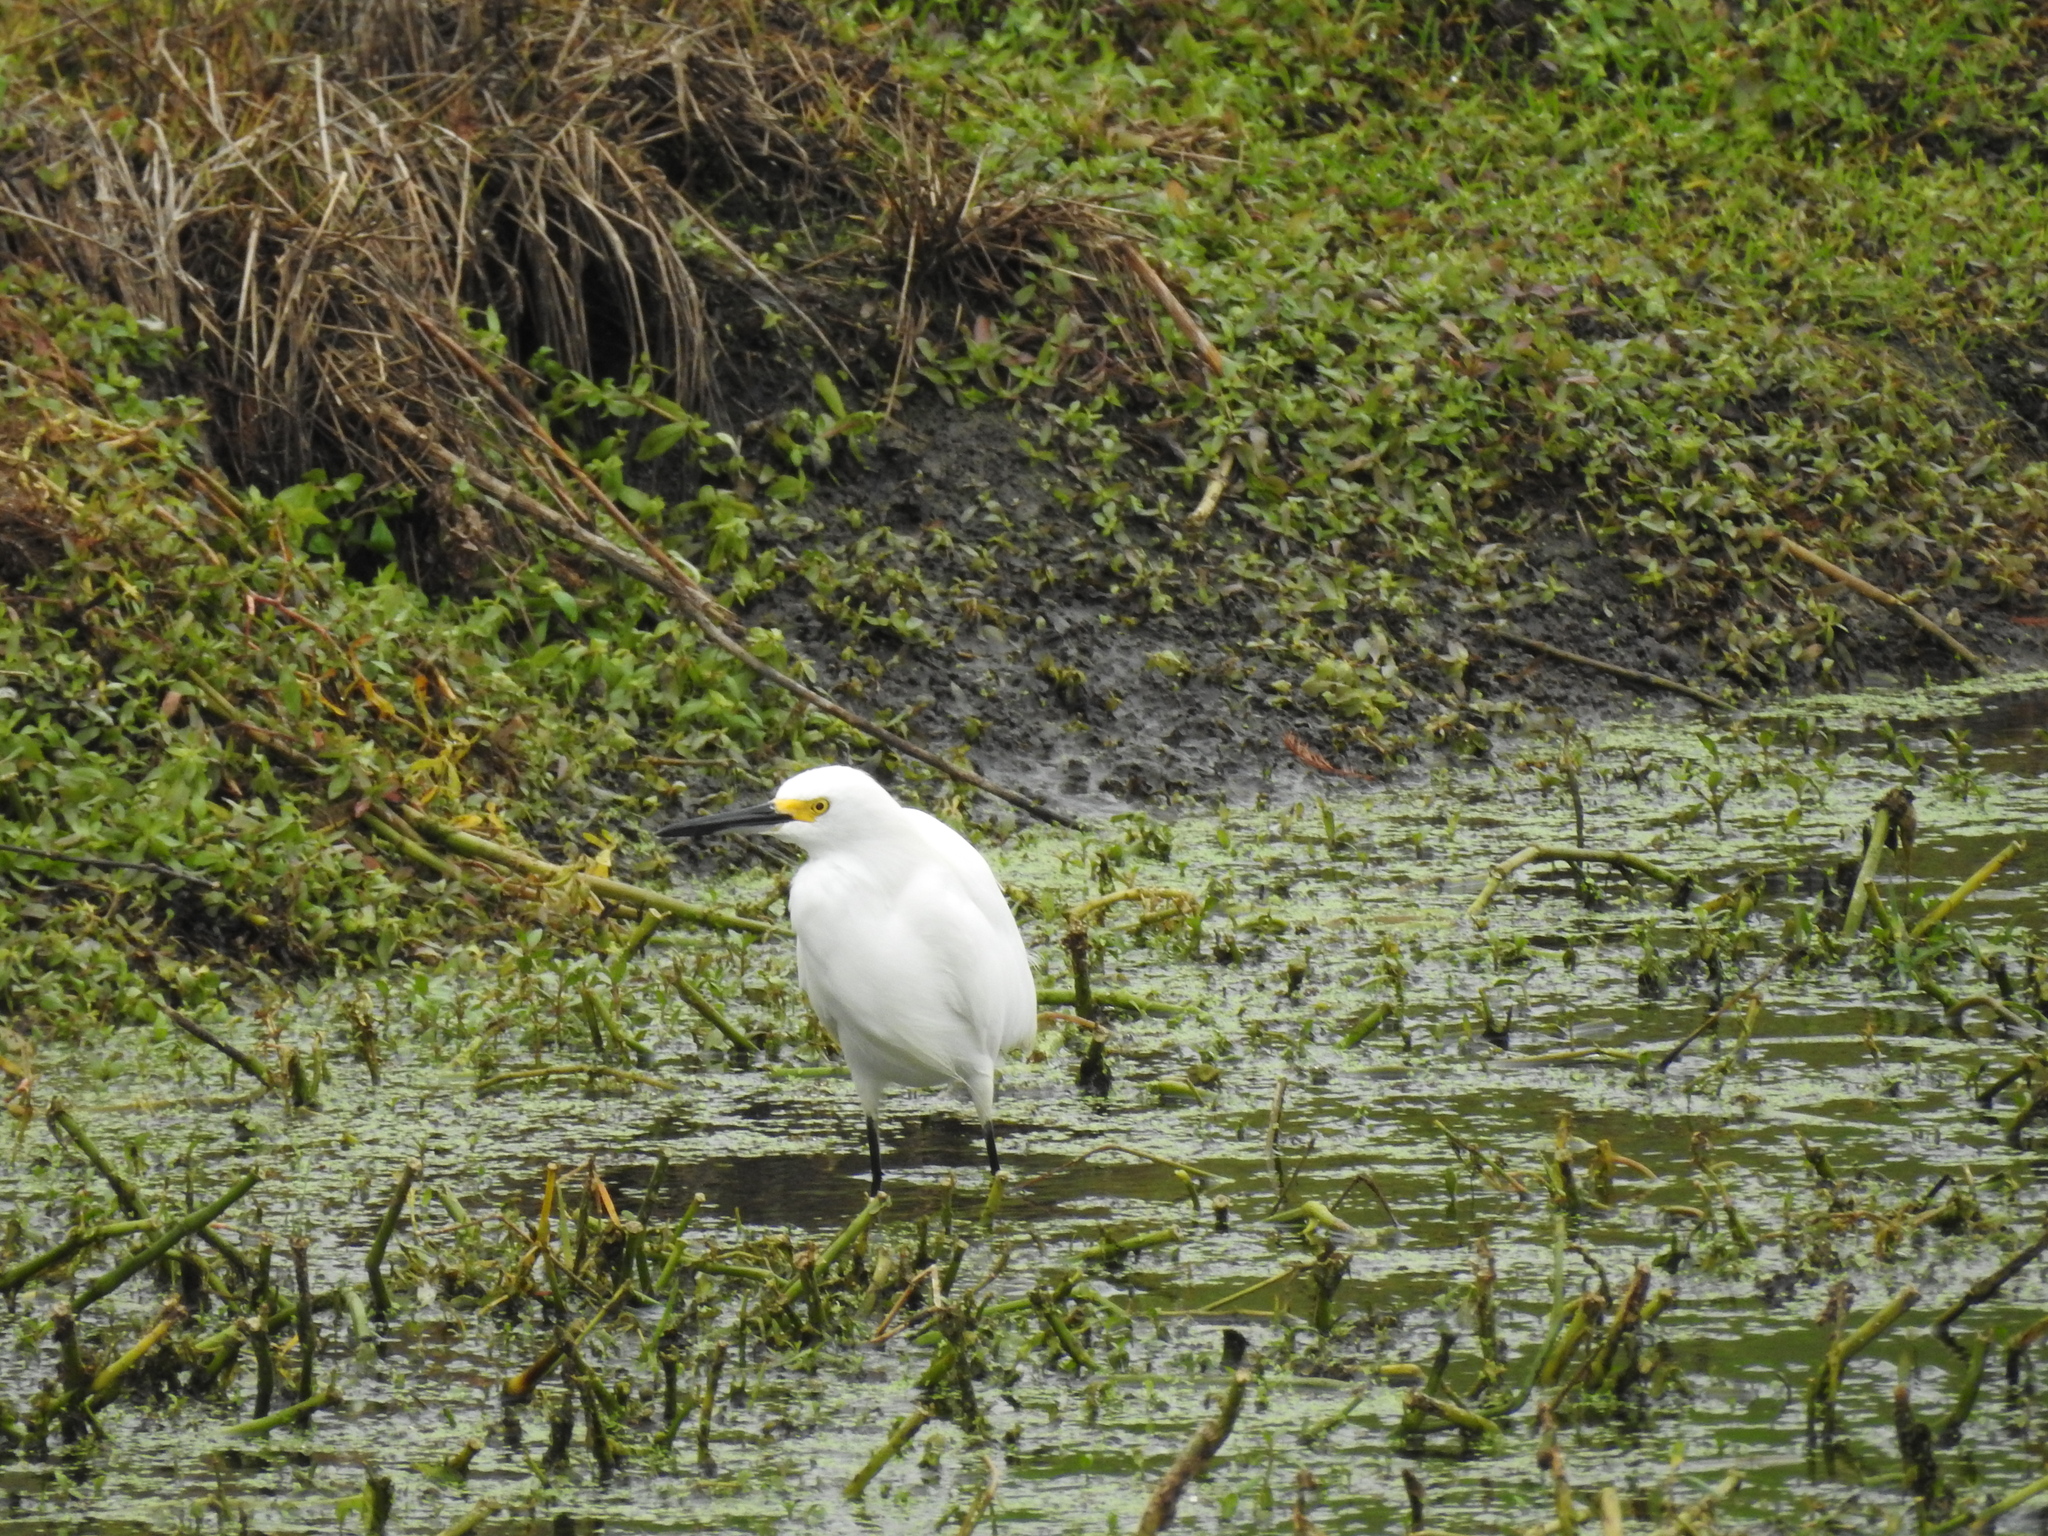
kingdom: Animalia
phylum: Chordata
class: Aves
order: Pelecaniformes
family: Ardeidae
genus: Egretta
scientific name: Egretta thula
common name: Snowy egret
